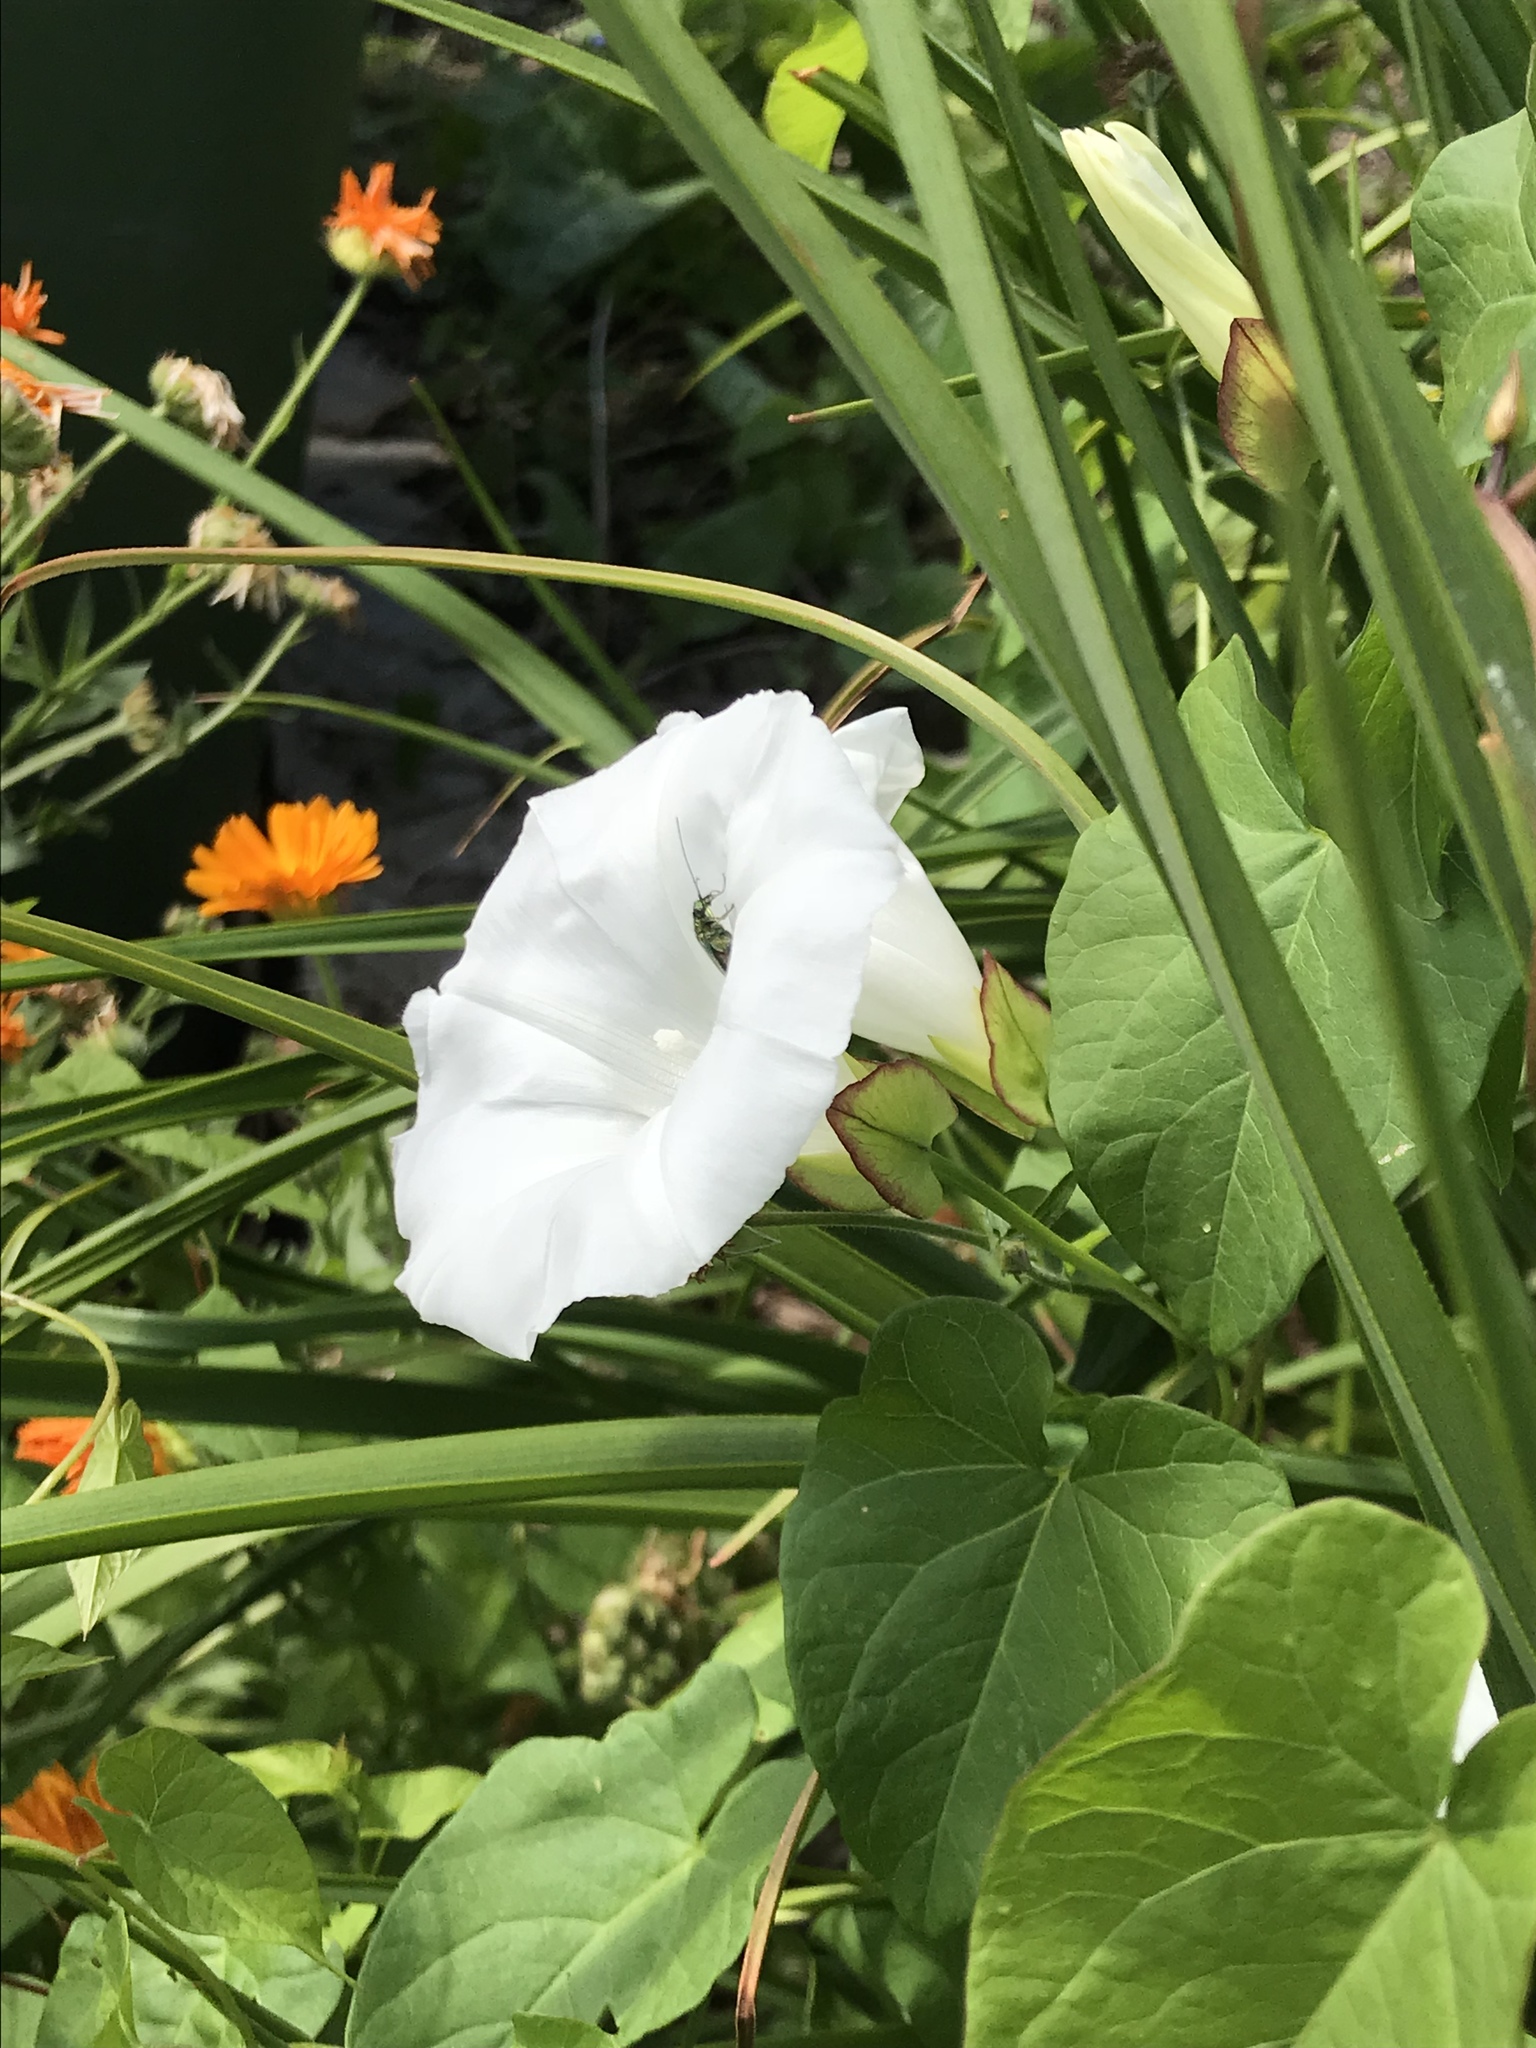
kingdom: Plantae
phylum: Tracheophyta
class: Magnoliopsida
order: Solanales
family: Convolvulaceae
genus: Calystegia
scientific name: Calystegia sepium
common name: Hedge bindweed
